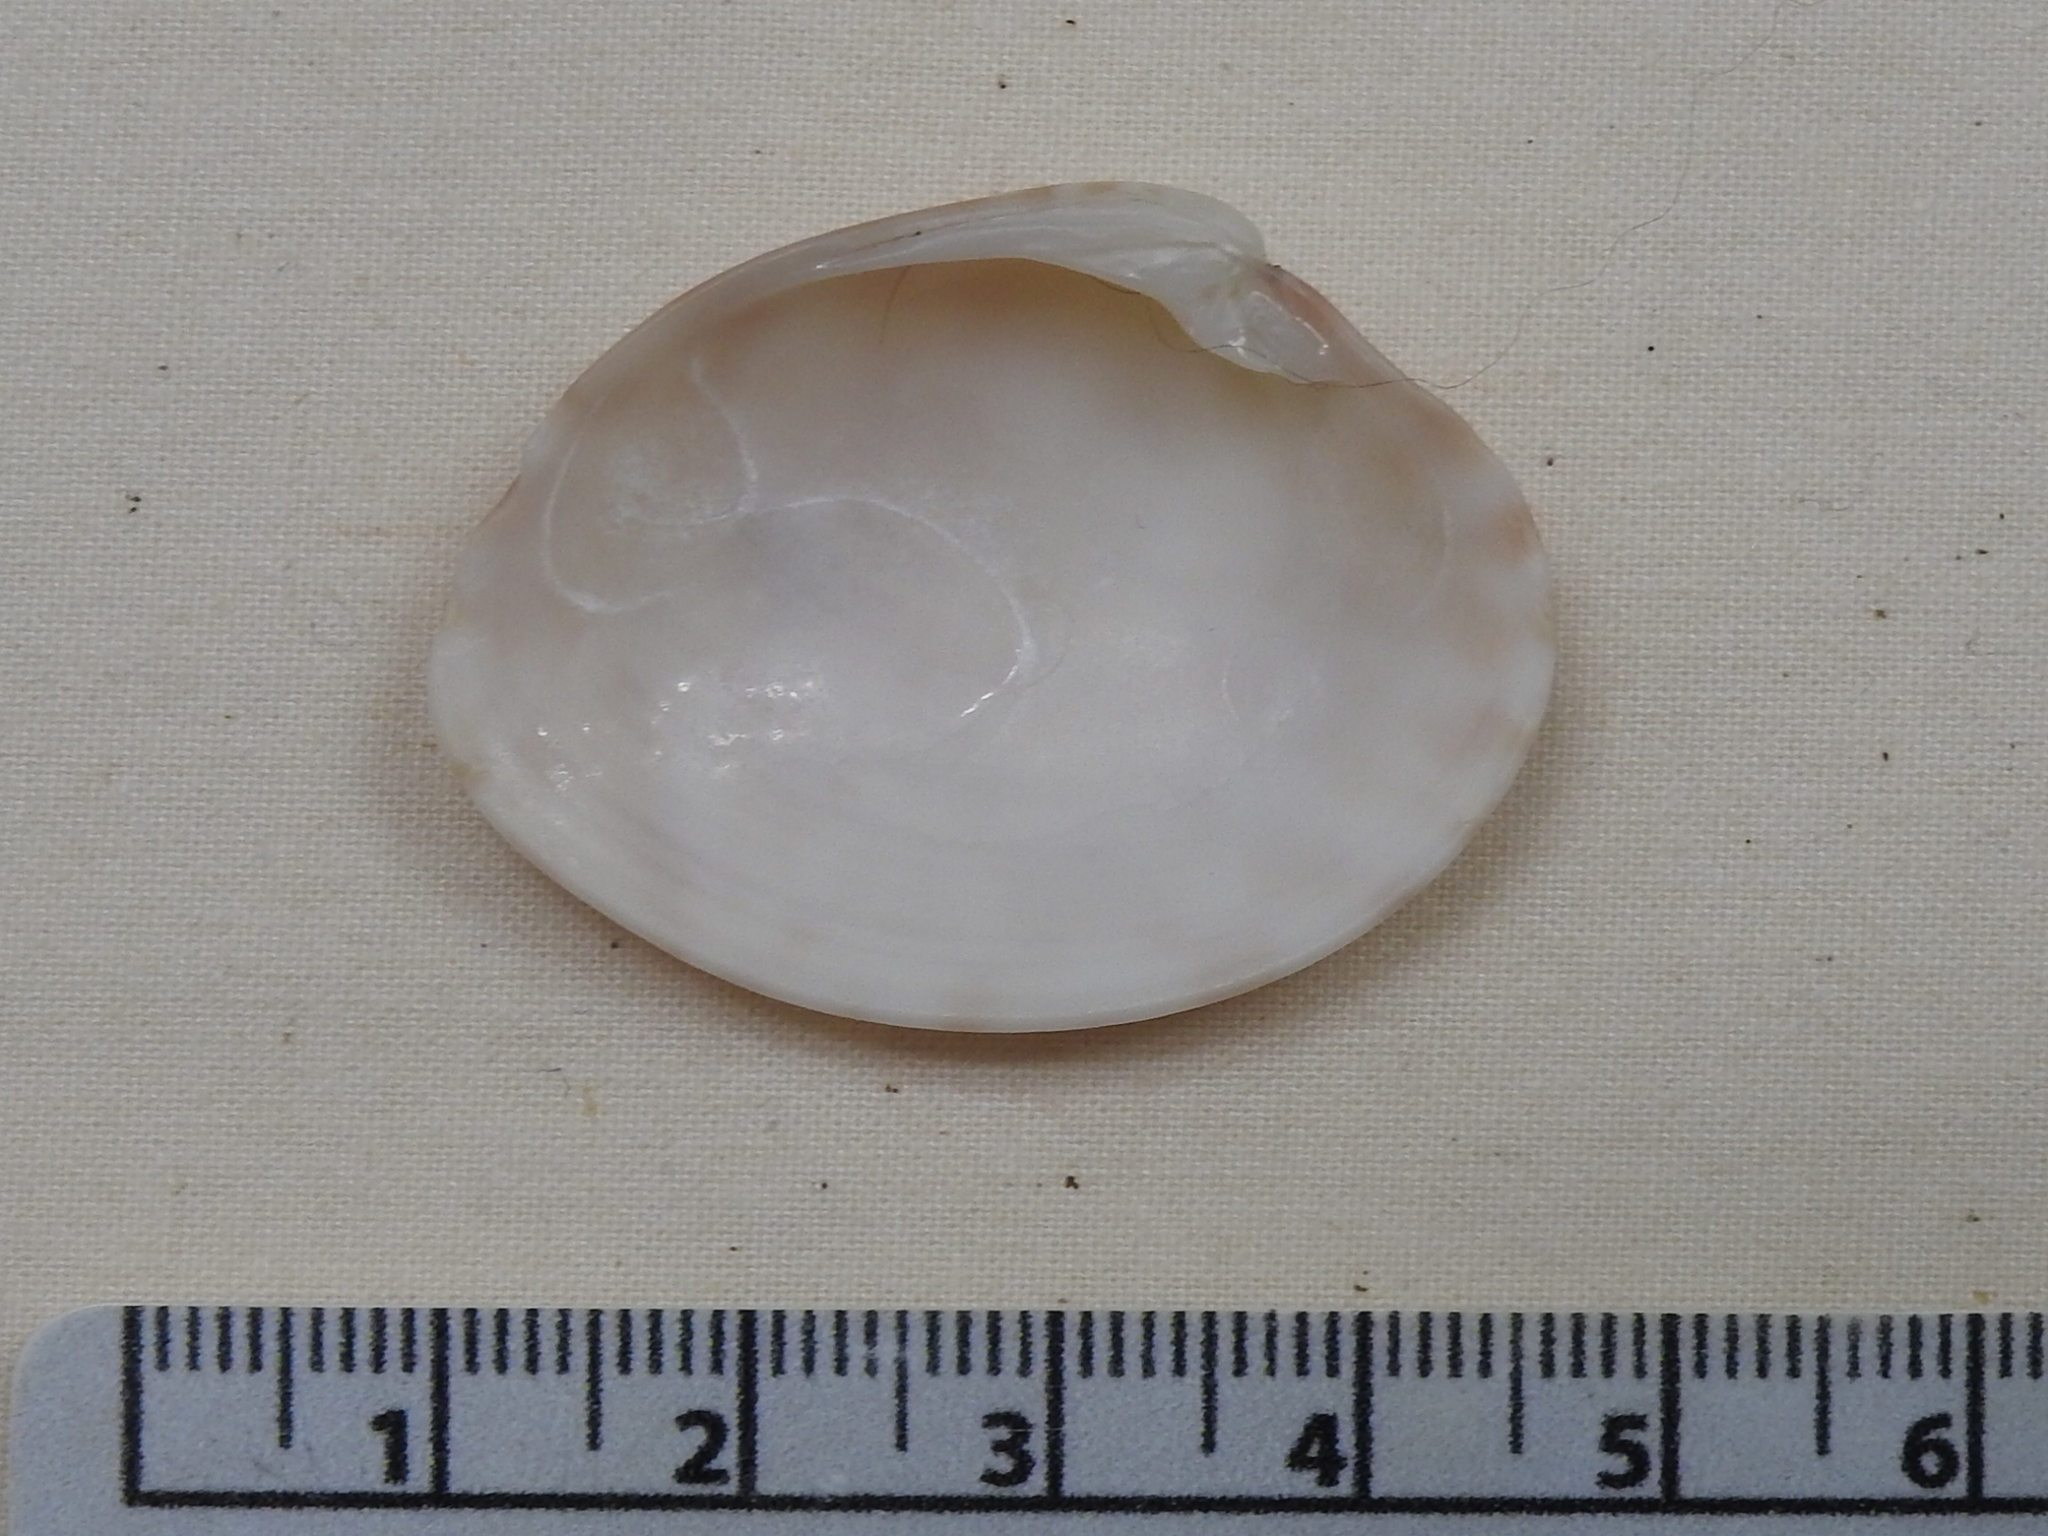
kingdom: Animalia
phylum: Mollusca
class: Bivalvia
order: Venerida
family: Veneridae
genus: Megapitaria
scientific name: Megapitaria maculata
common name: Calico clam
